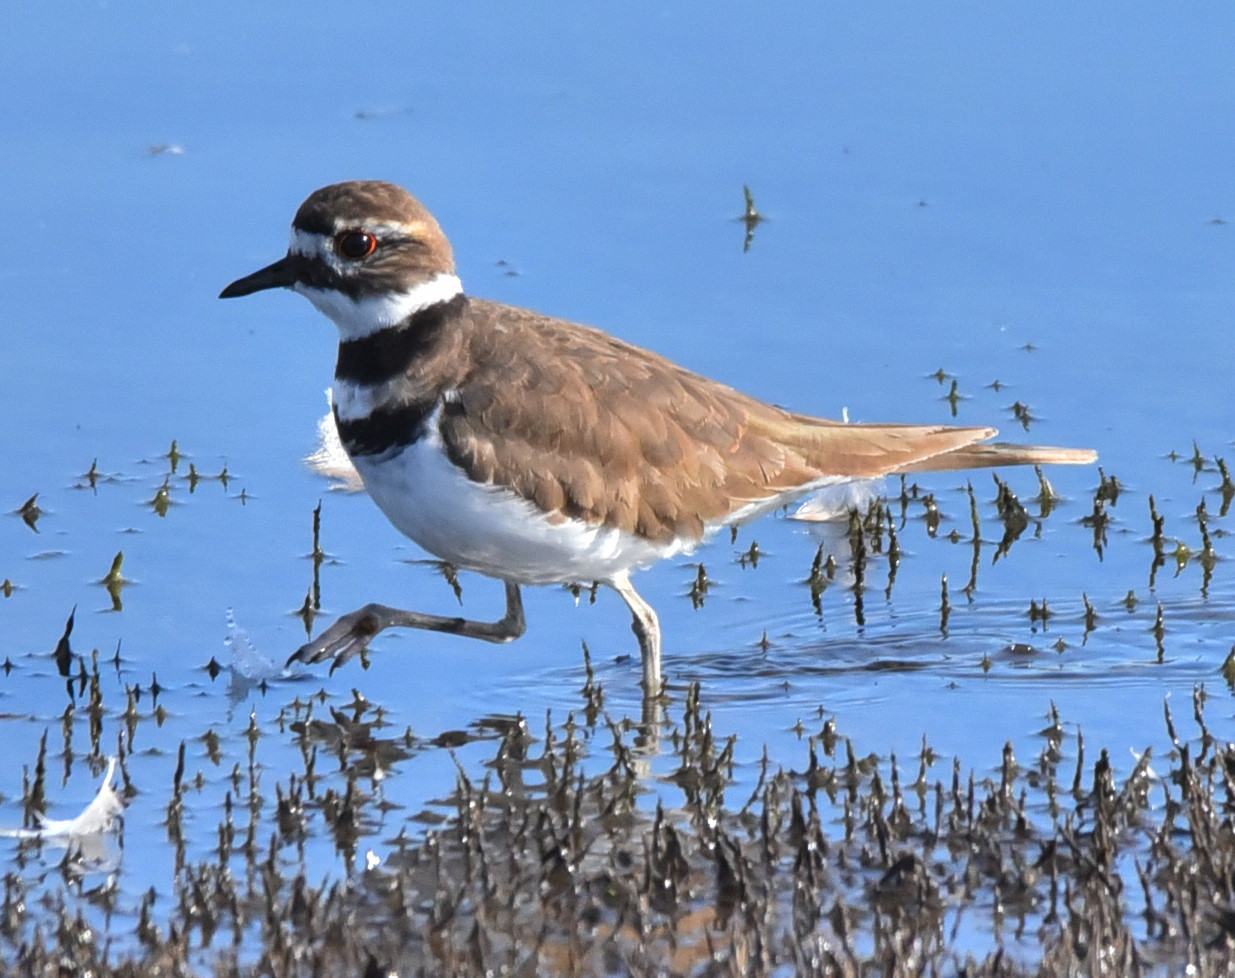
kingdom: Animalia
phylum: Chordata
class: Aves
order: Charadriiformes
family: Charadriidae
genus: Charadrius
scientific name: Charadrius vociferus
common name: Killdeer
